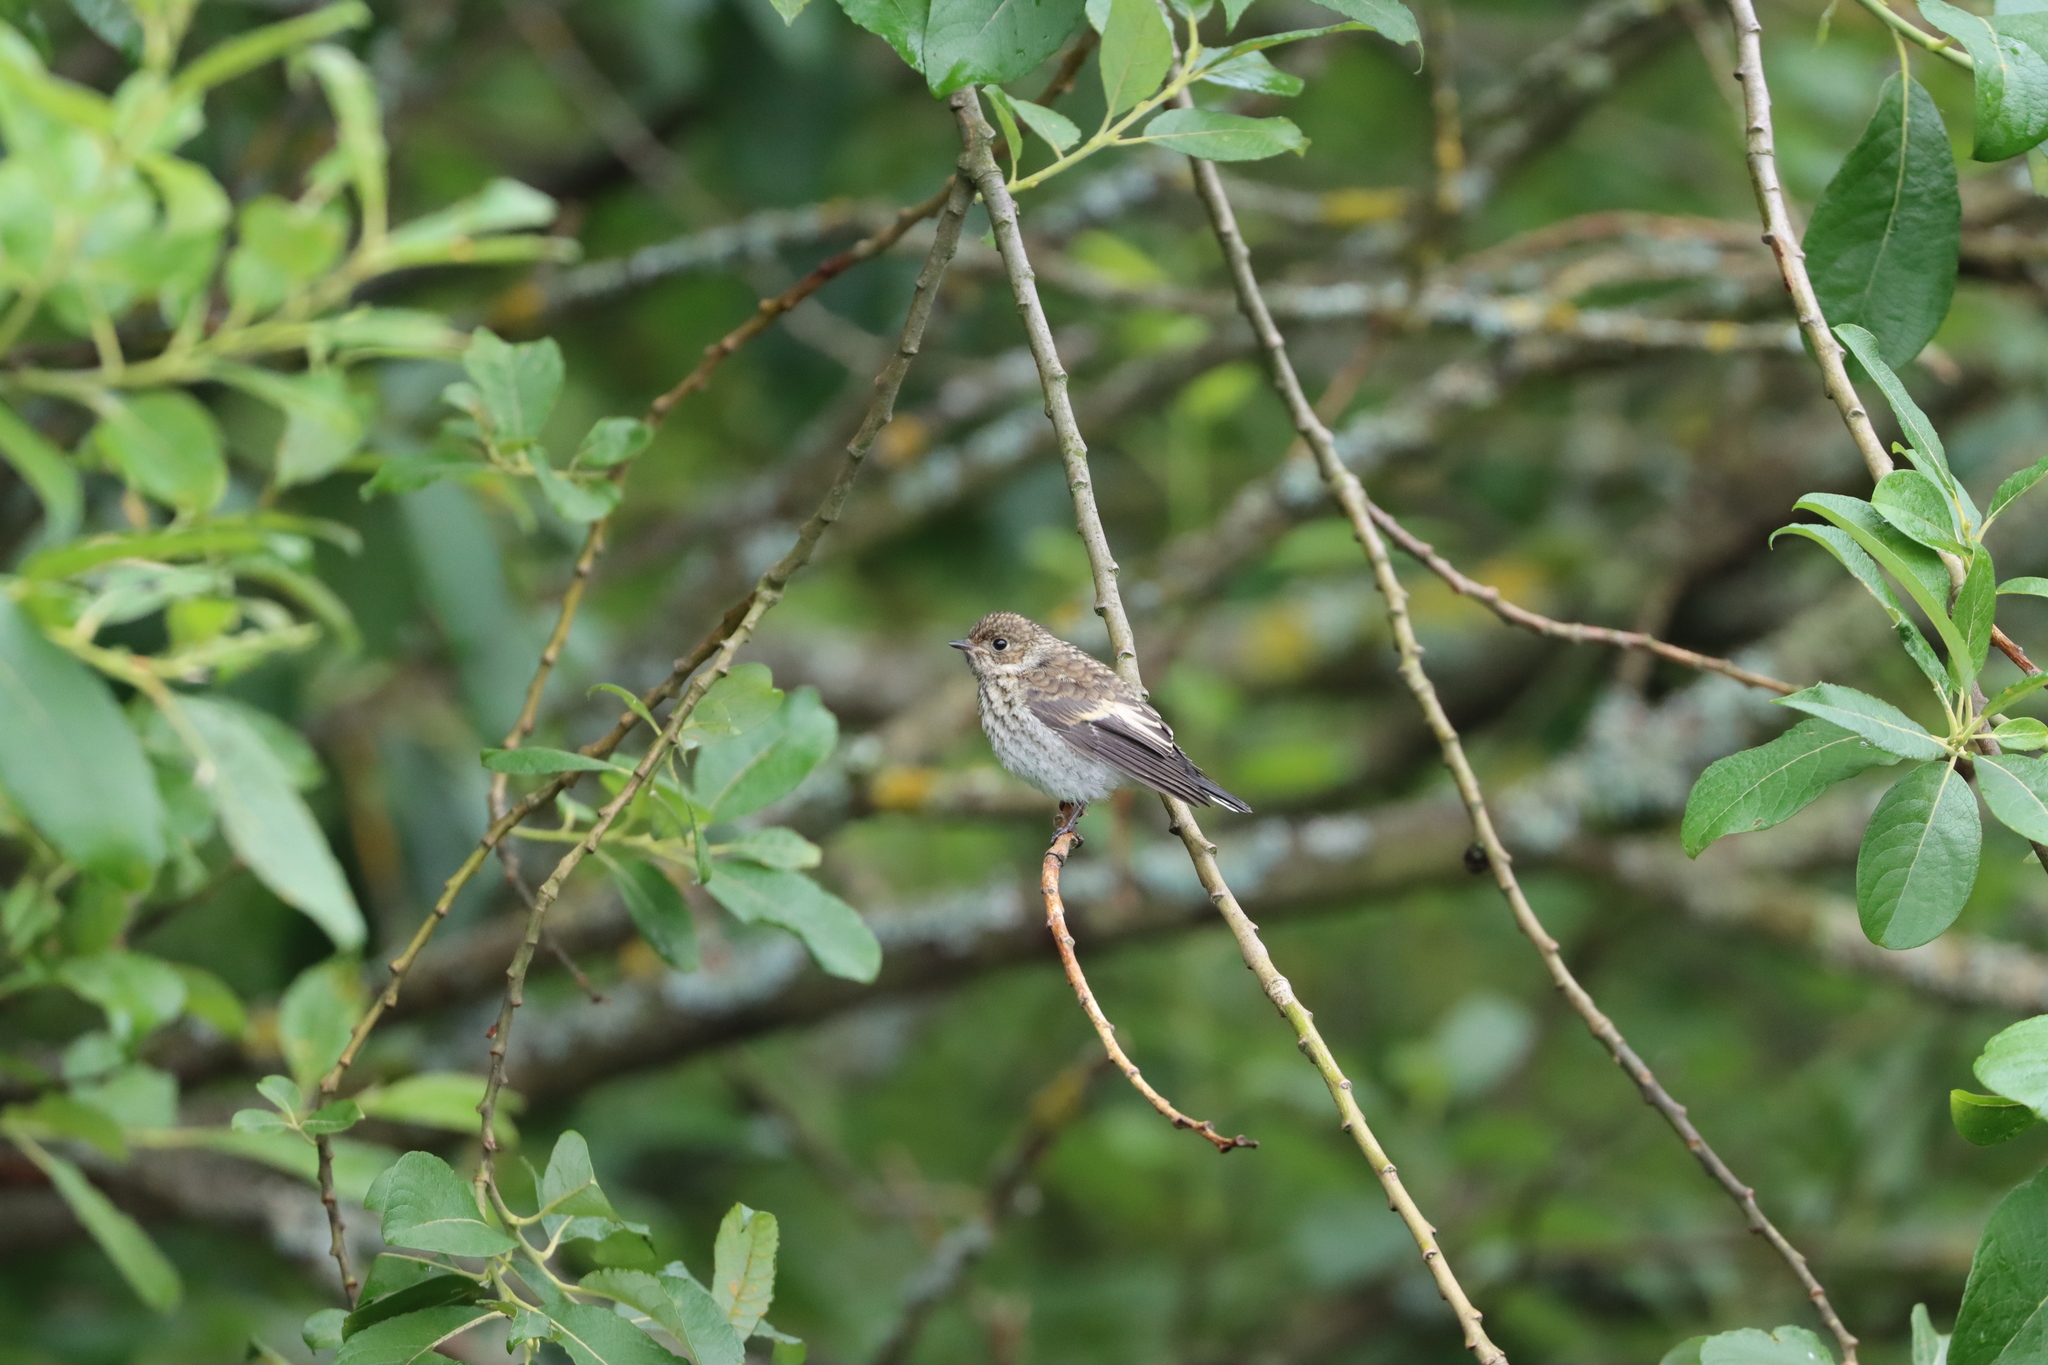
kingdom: Animalia
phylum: Chordata
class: Aves
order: Passeriformes
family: Muscicapidae
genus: Ficedula
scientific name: Ficedula hypoleuca
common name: European pied flycatcher
